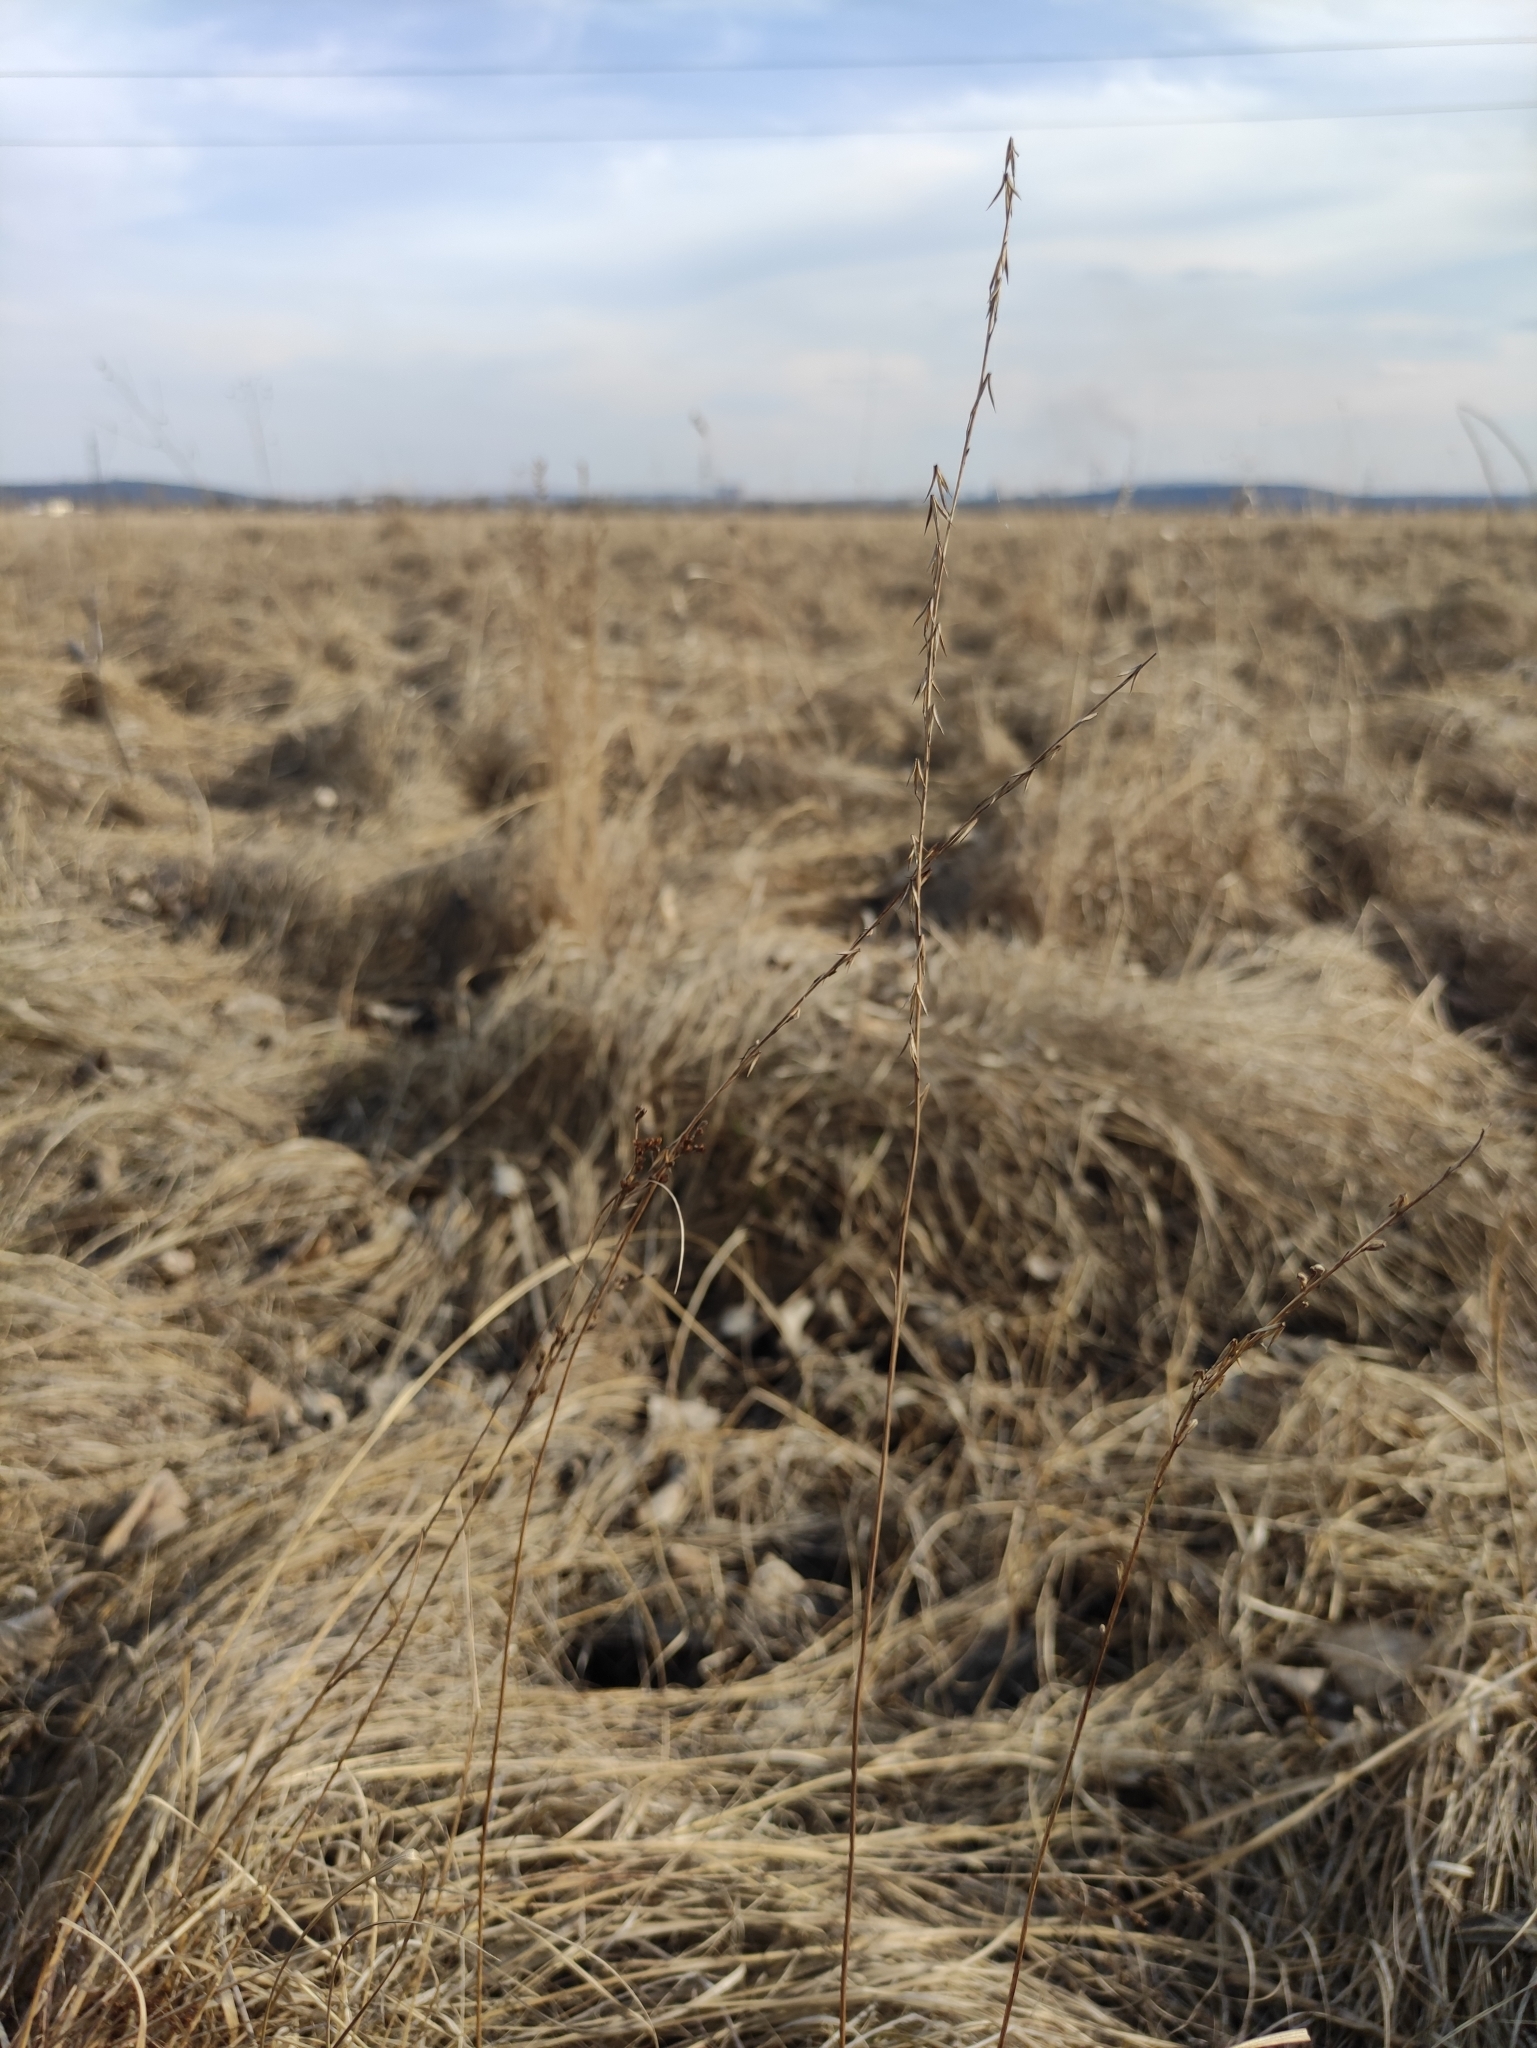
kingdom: Plantae
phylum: Tracheophyta
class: Liliopsida
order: Alismatales
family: Juncaginaceae
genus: Triglochin
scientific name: Triglochin palustris
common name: Marsh arrowgrass
